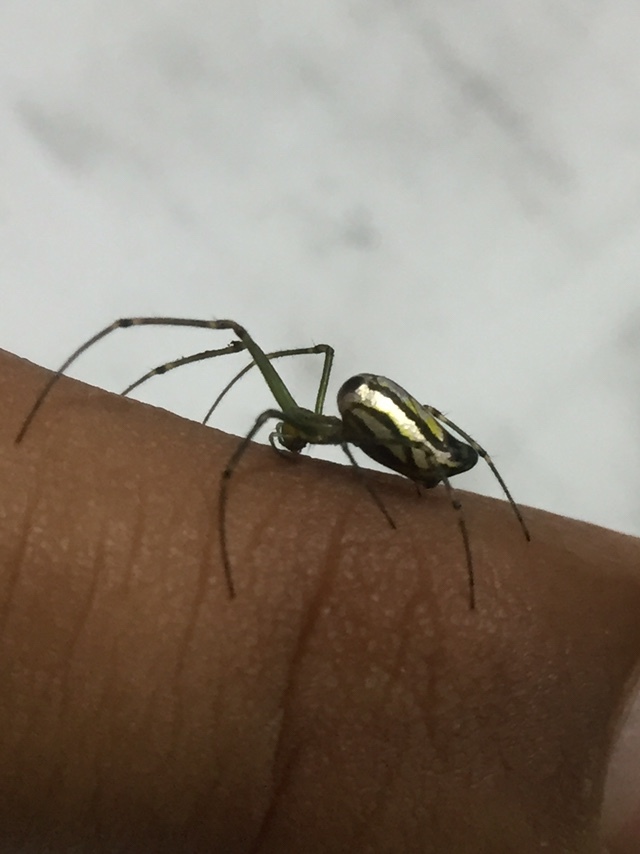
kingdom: Animalia
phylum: Arthropoda
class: Arachnida
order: Araneae
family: Tetragnathidae
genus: Leucauge
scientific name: Leucauge decorata
